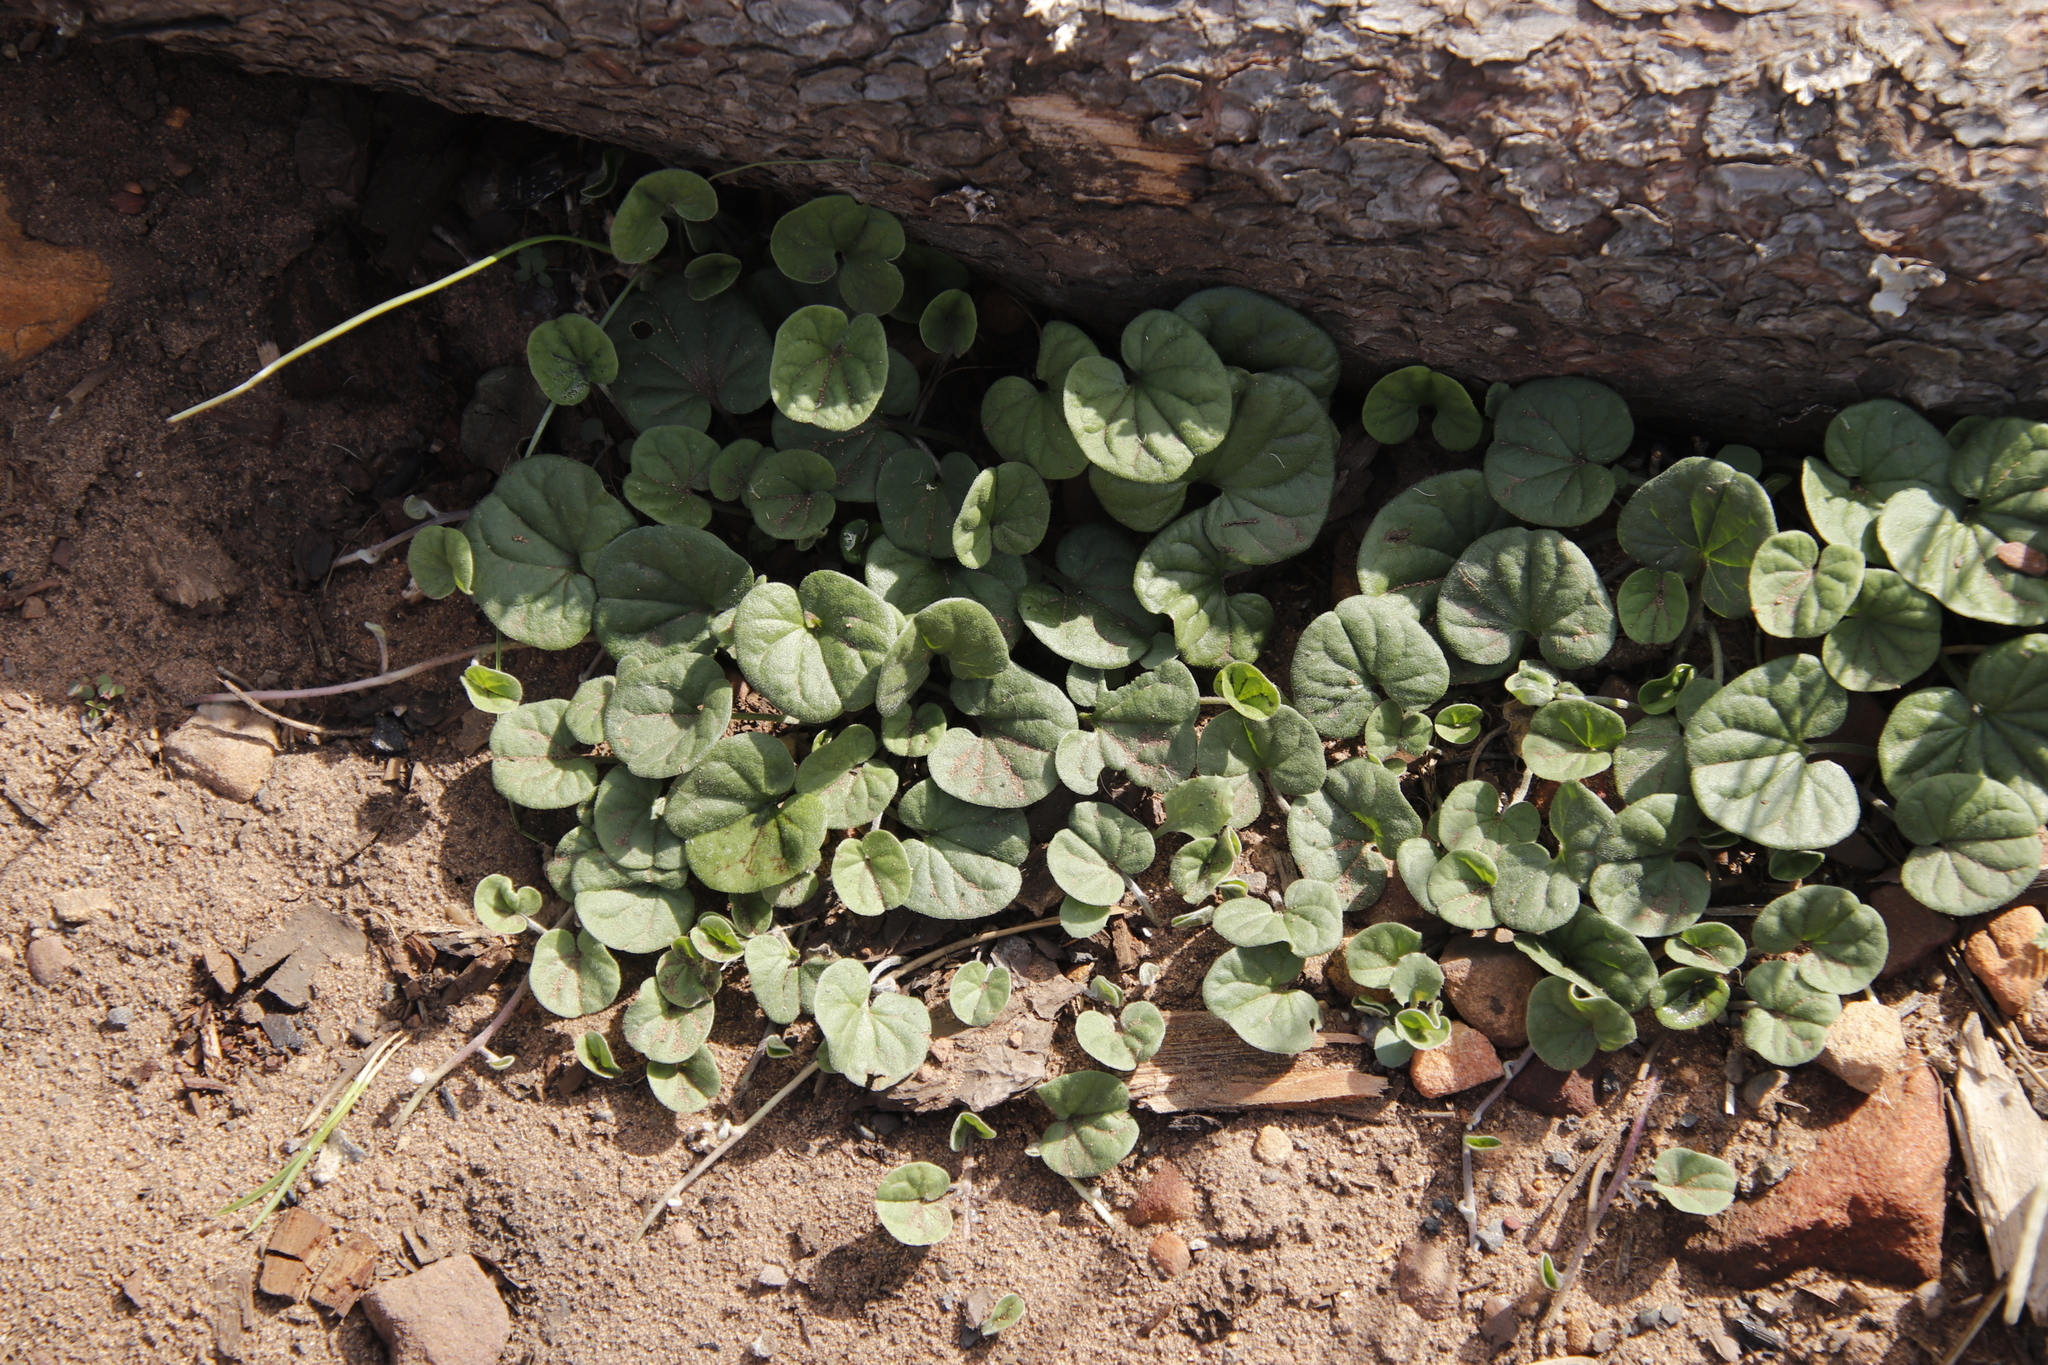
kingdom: Plantae
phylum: Tracheophyta
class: Magnoliopsida
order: Solanales
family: Convolvulaceae
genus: Dichondra
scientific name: Dichondra micrantha
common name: Kidneyweed
